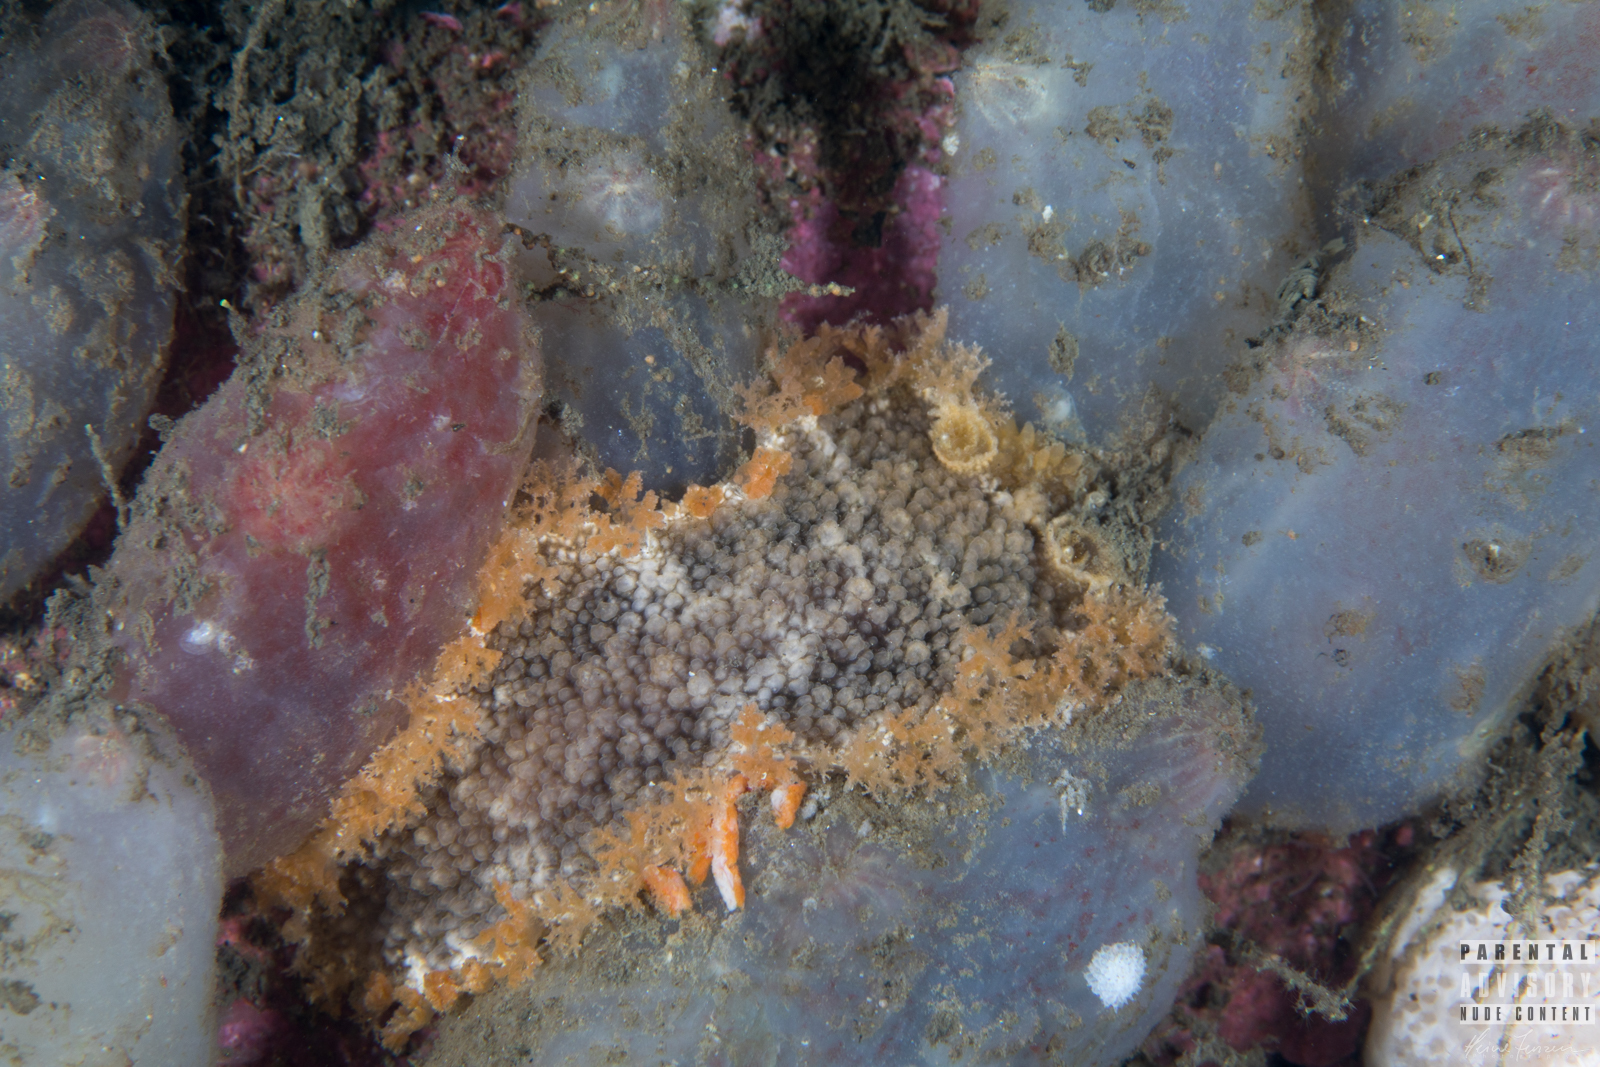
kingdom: Animalia
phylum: Mollusca
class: Gastropoda
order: Nudibranchia
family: Tritoniidae
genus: Tritonia
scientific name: Tritonia hombergii
